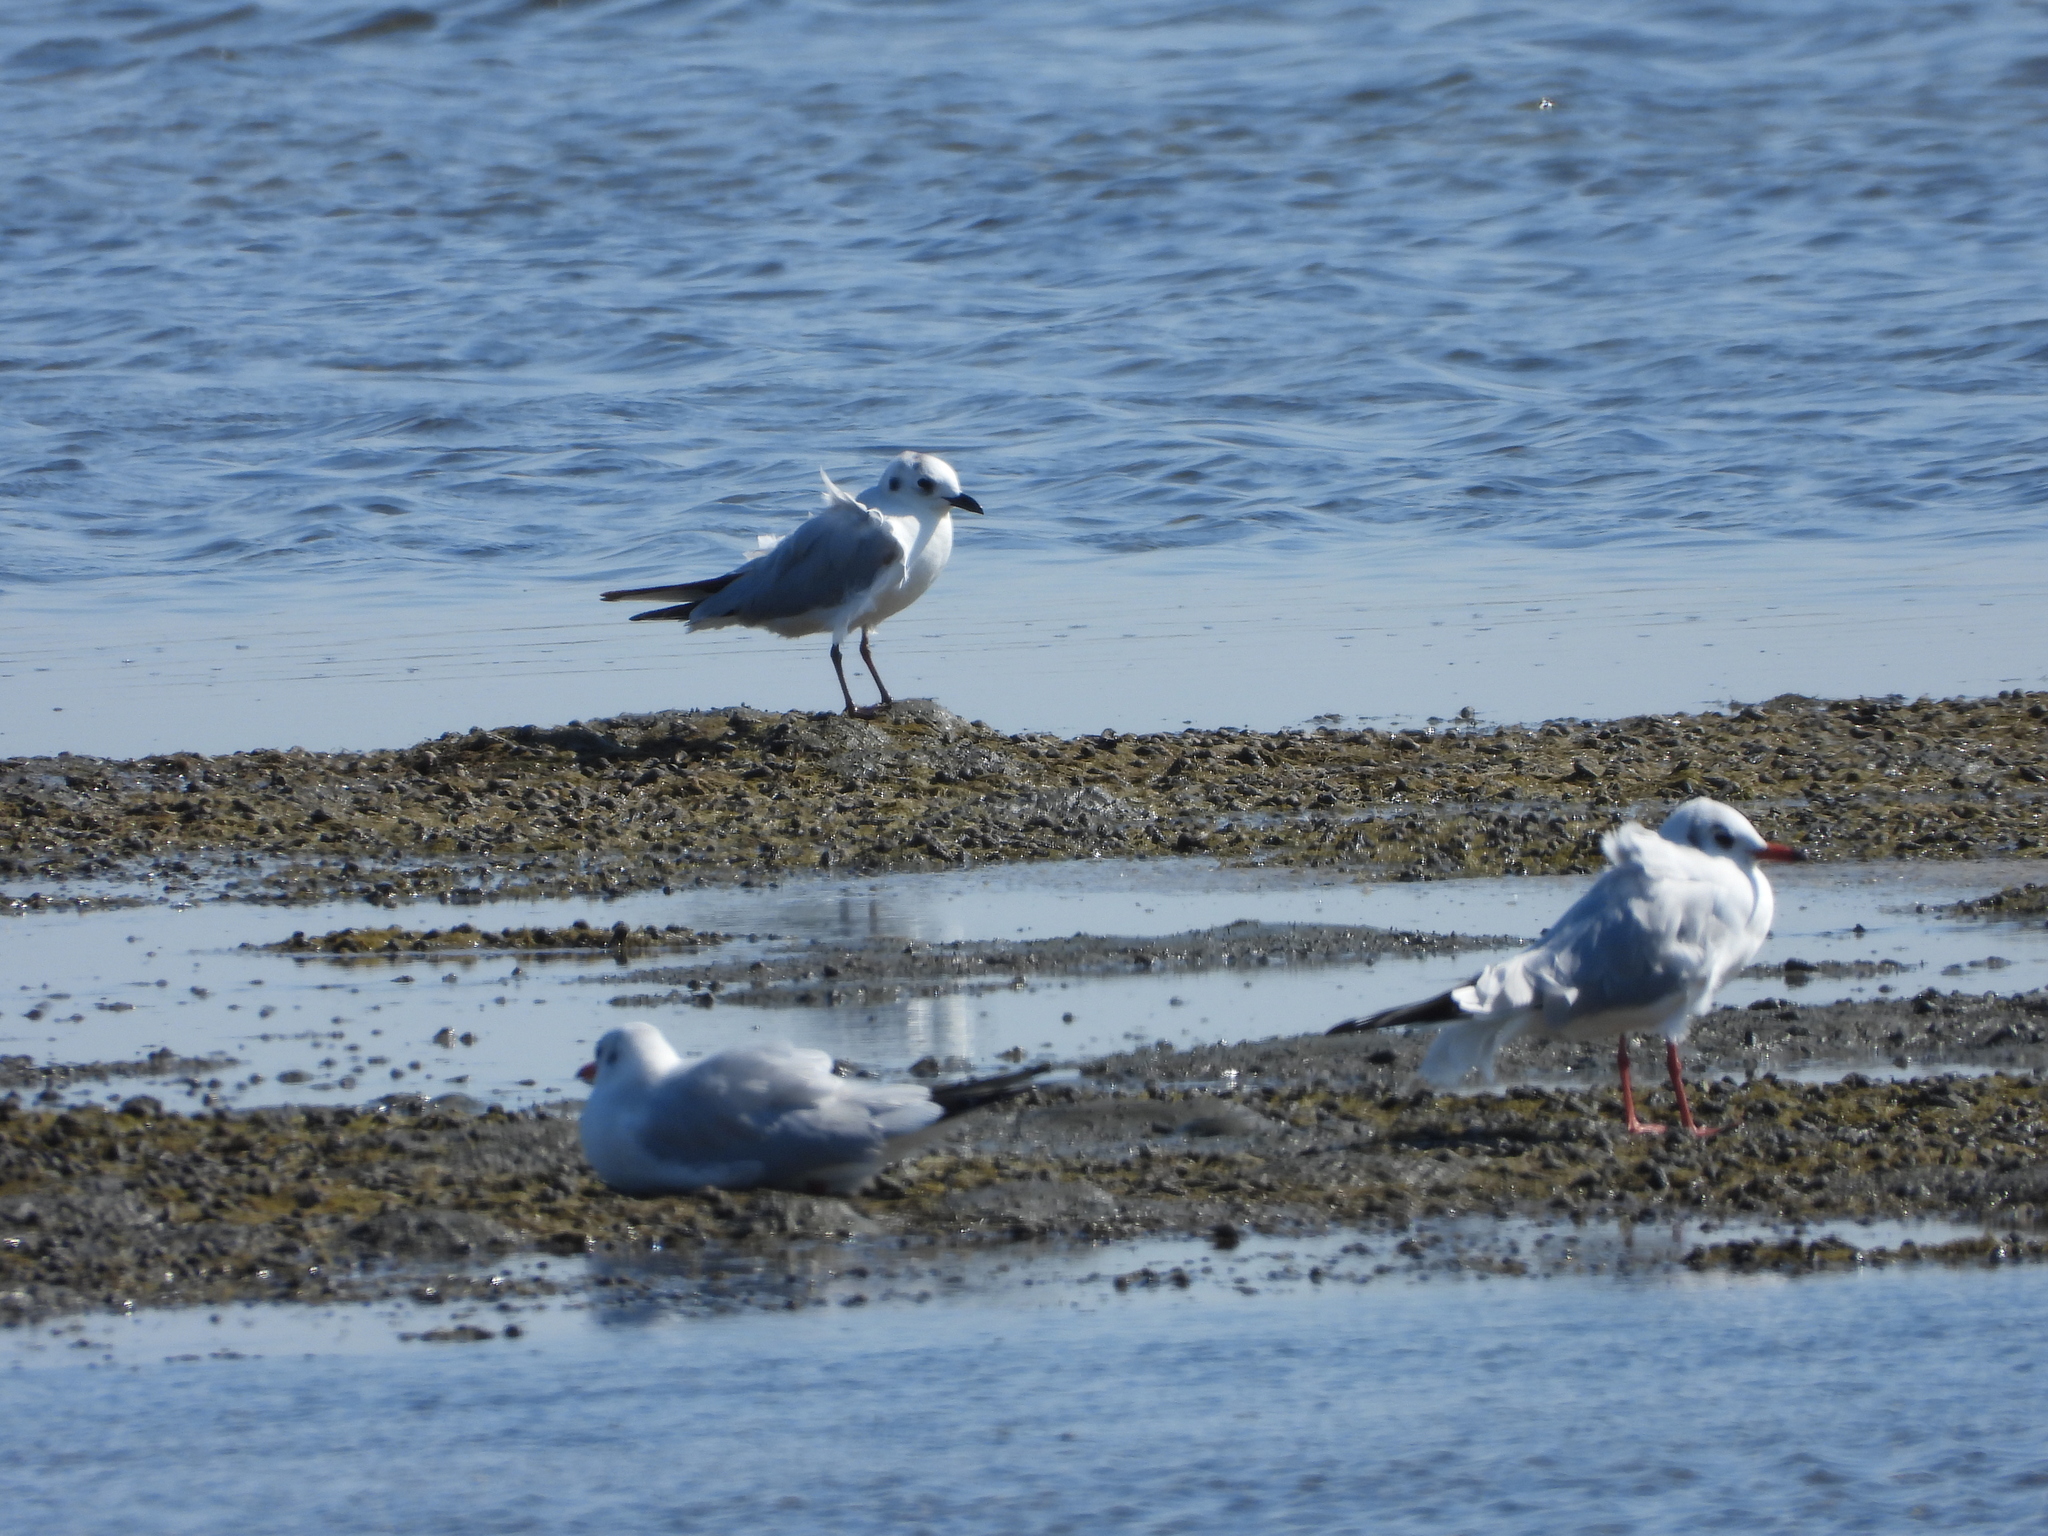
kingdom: Animalia
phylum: Chordata
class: Aves
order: Charadriiformes
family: Laridae
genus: Chroicocephalus
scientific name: Chroicocephalus saundersi
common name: Saunders's gull
